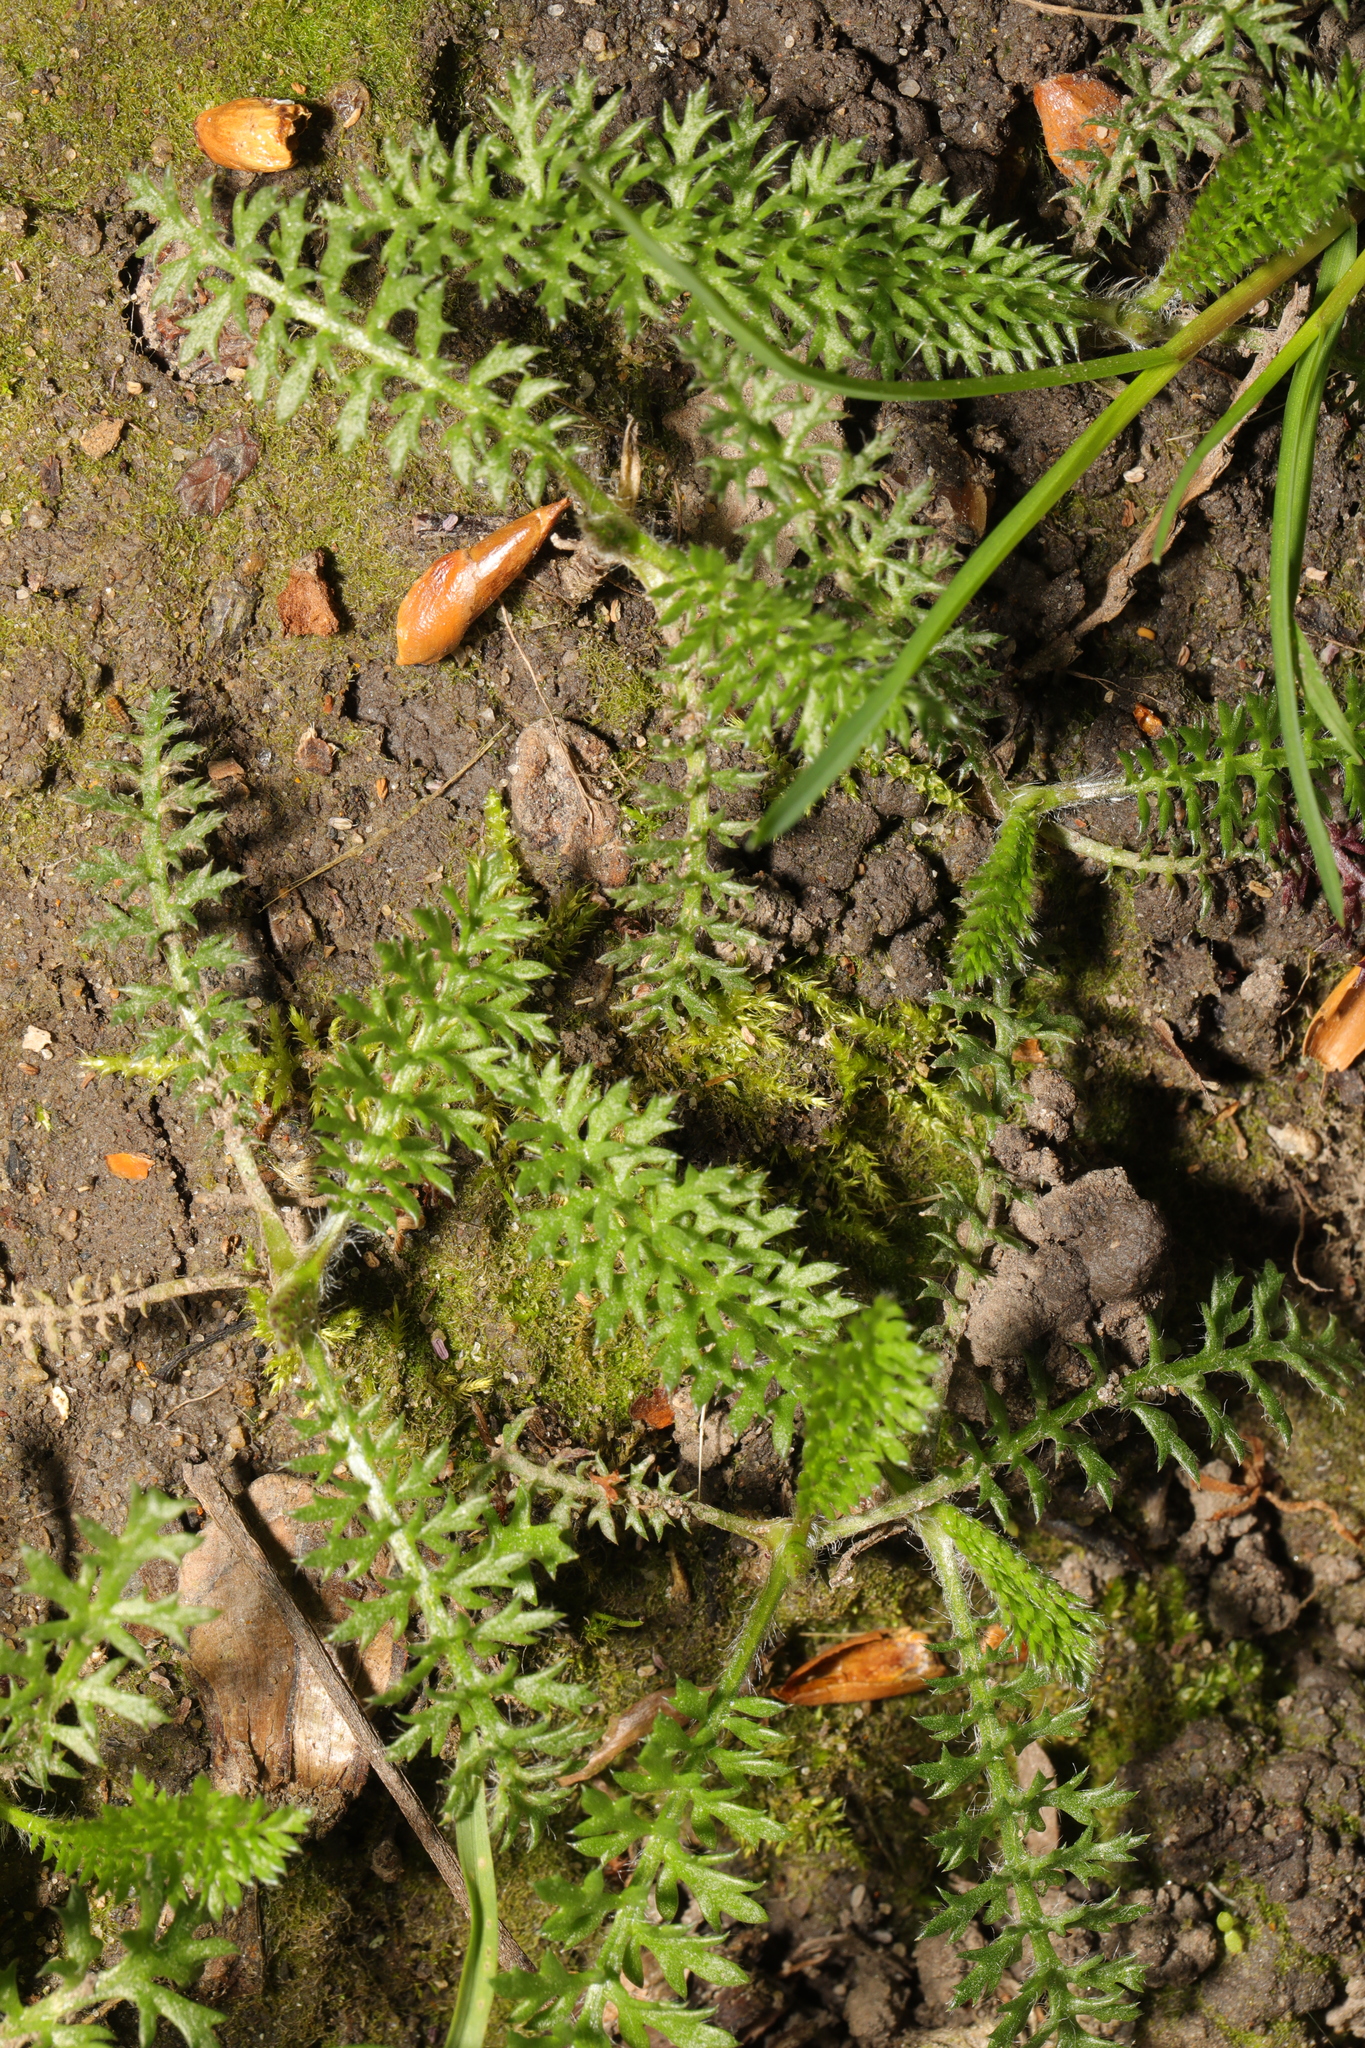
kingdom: Plantae
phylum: Tracheophyta
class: Magnoliopsida
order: Asterales
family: Asteraceae
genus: Achillea
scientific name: Achillea millefolium
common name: Yarrow
